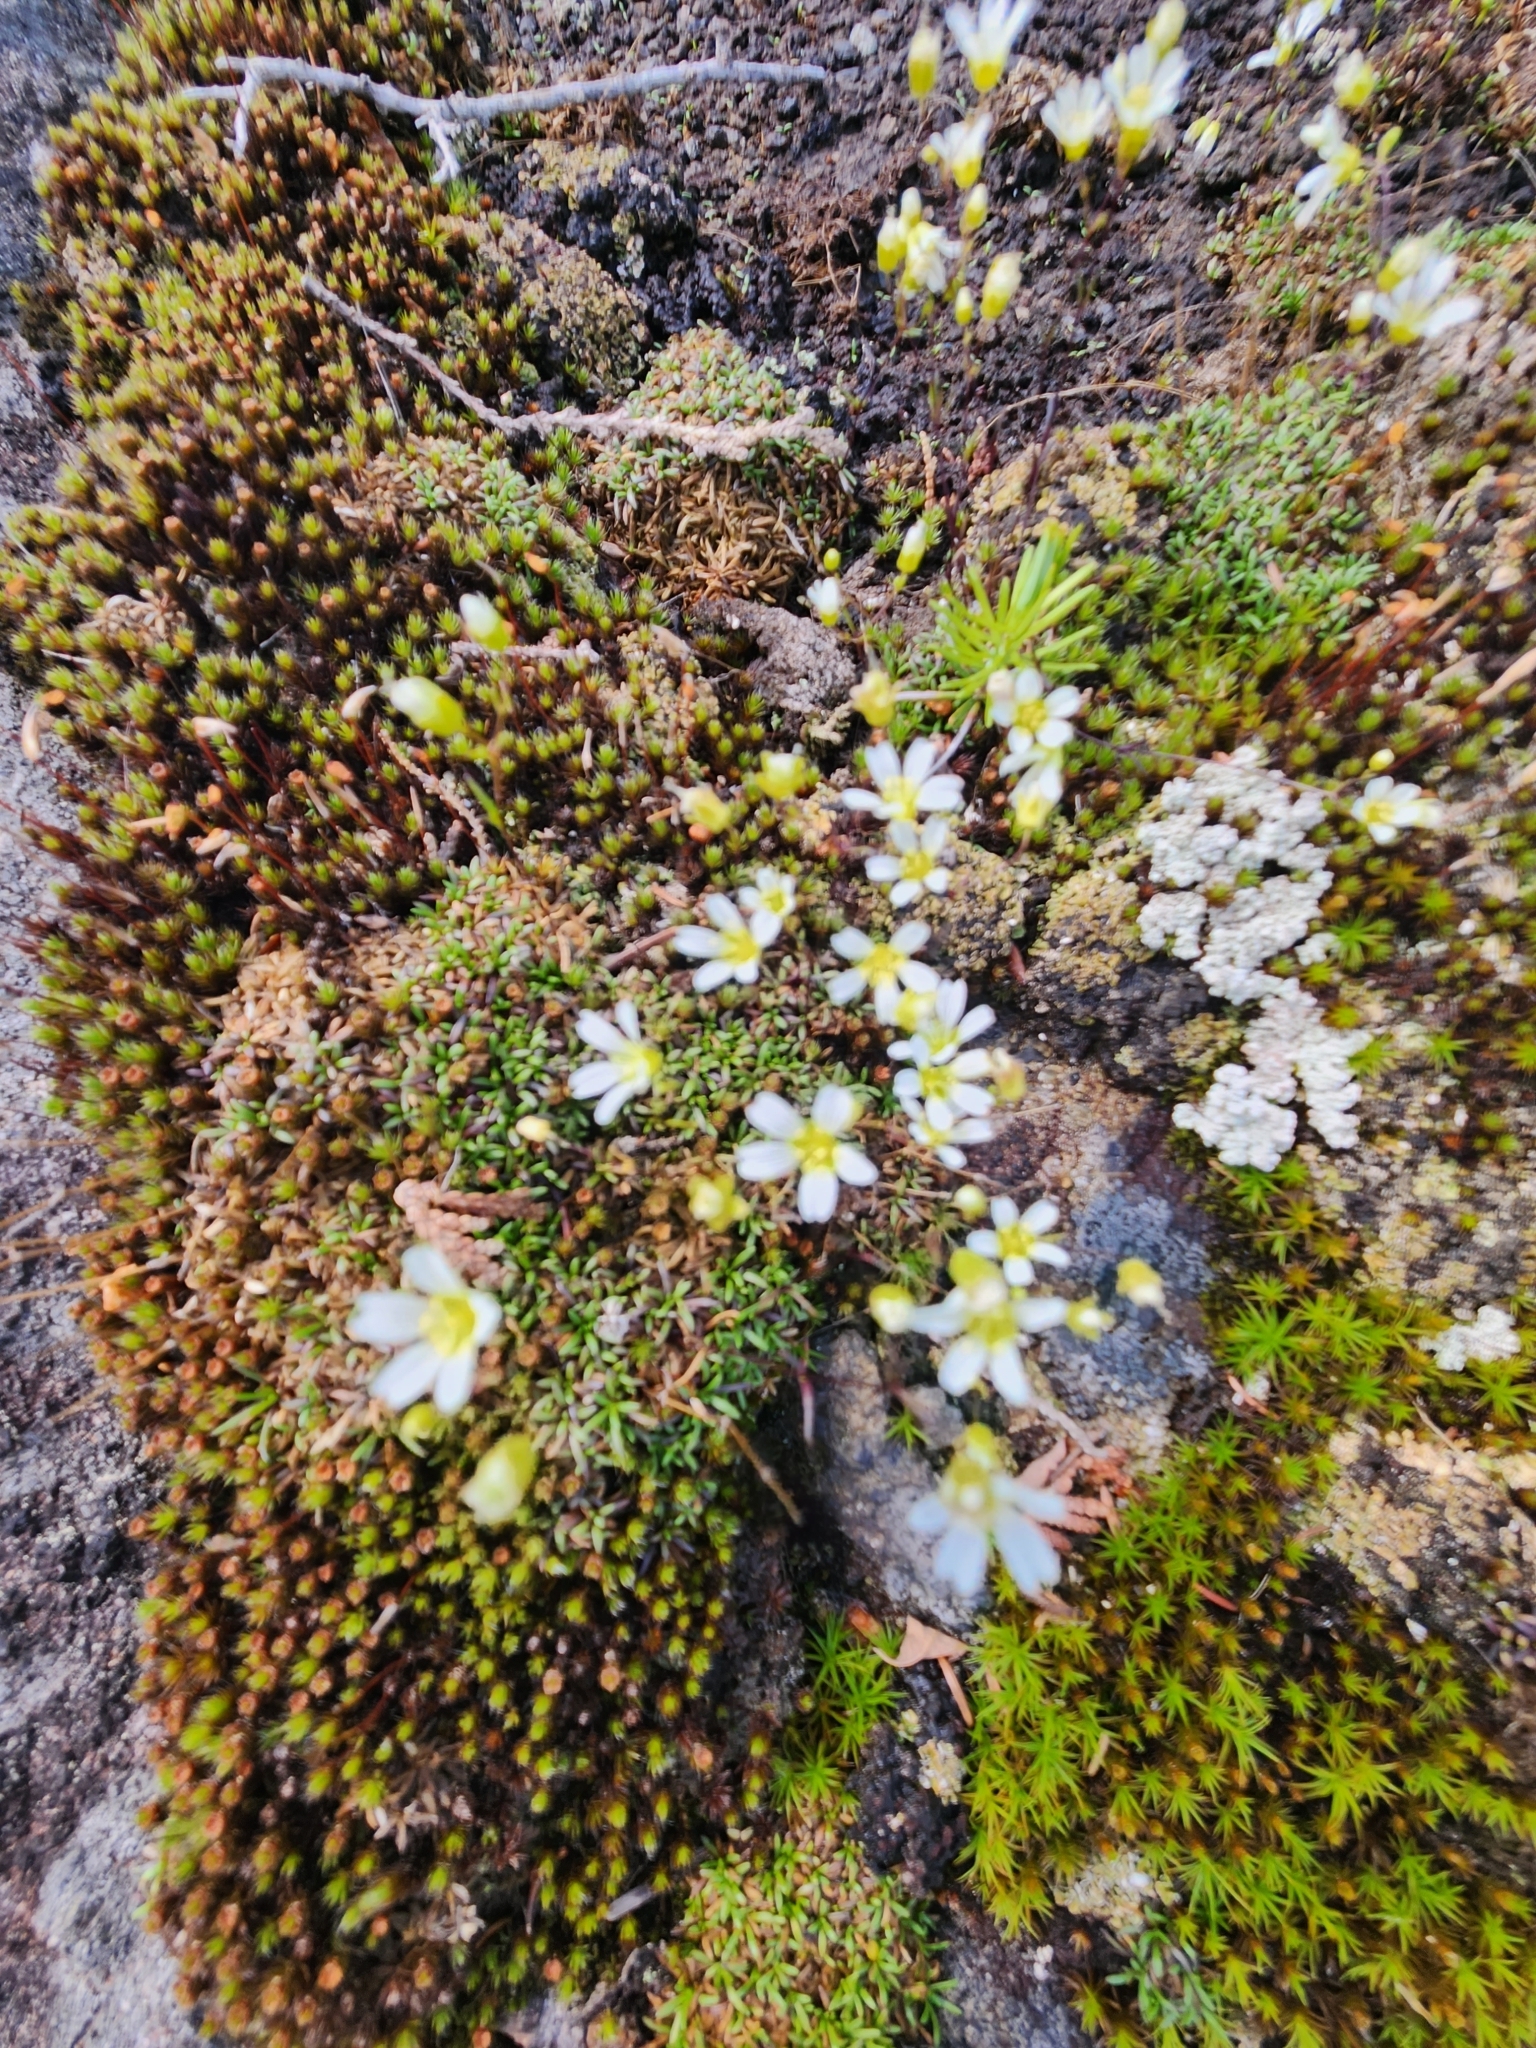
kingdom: Plantae
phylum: Tracheophyta
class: Magnoliopsida
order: Caryophyllales
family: Caryophyllaceae
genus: Geocarpon
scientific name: Geocarpon groenlandicum
